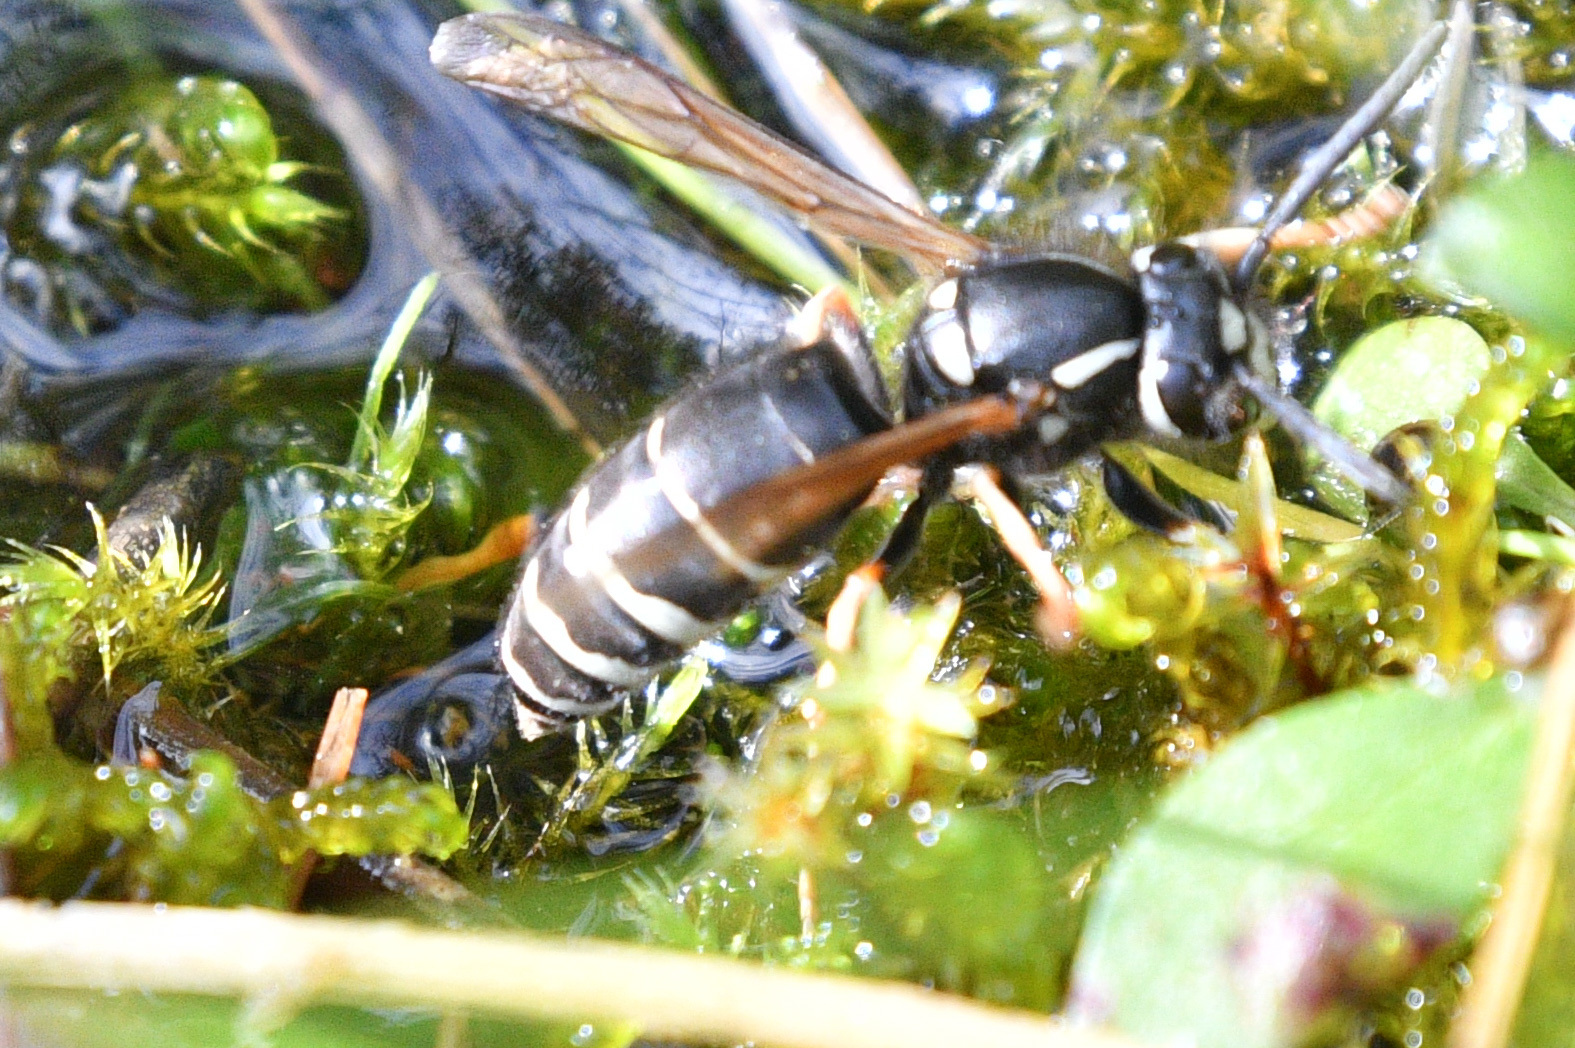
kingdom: Animalia
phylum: Arthropoda
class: Insecta
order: Hymenoptera
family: Vespidae
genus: Vespula
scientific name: Vespula consobrina
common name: Blackjacket
